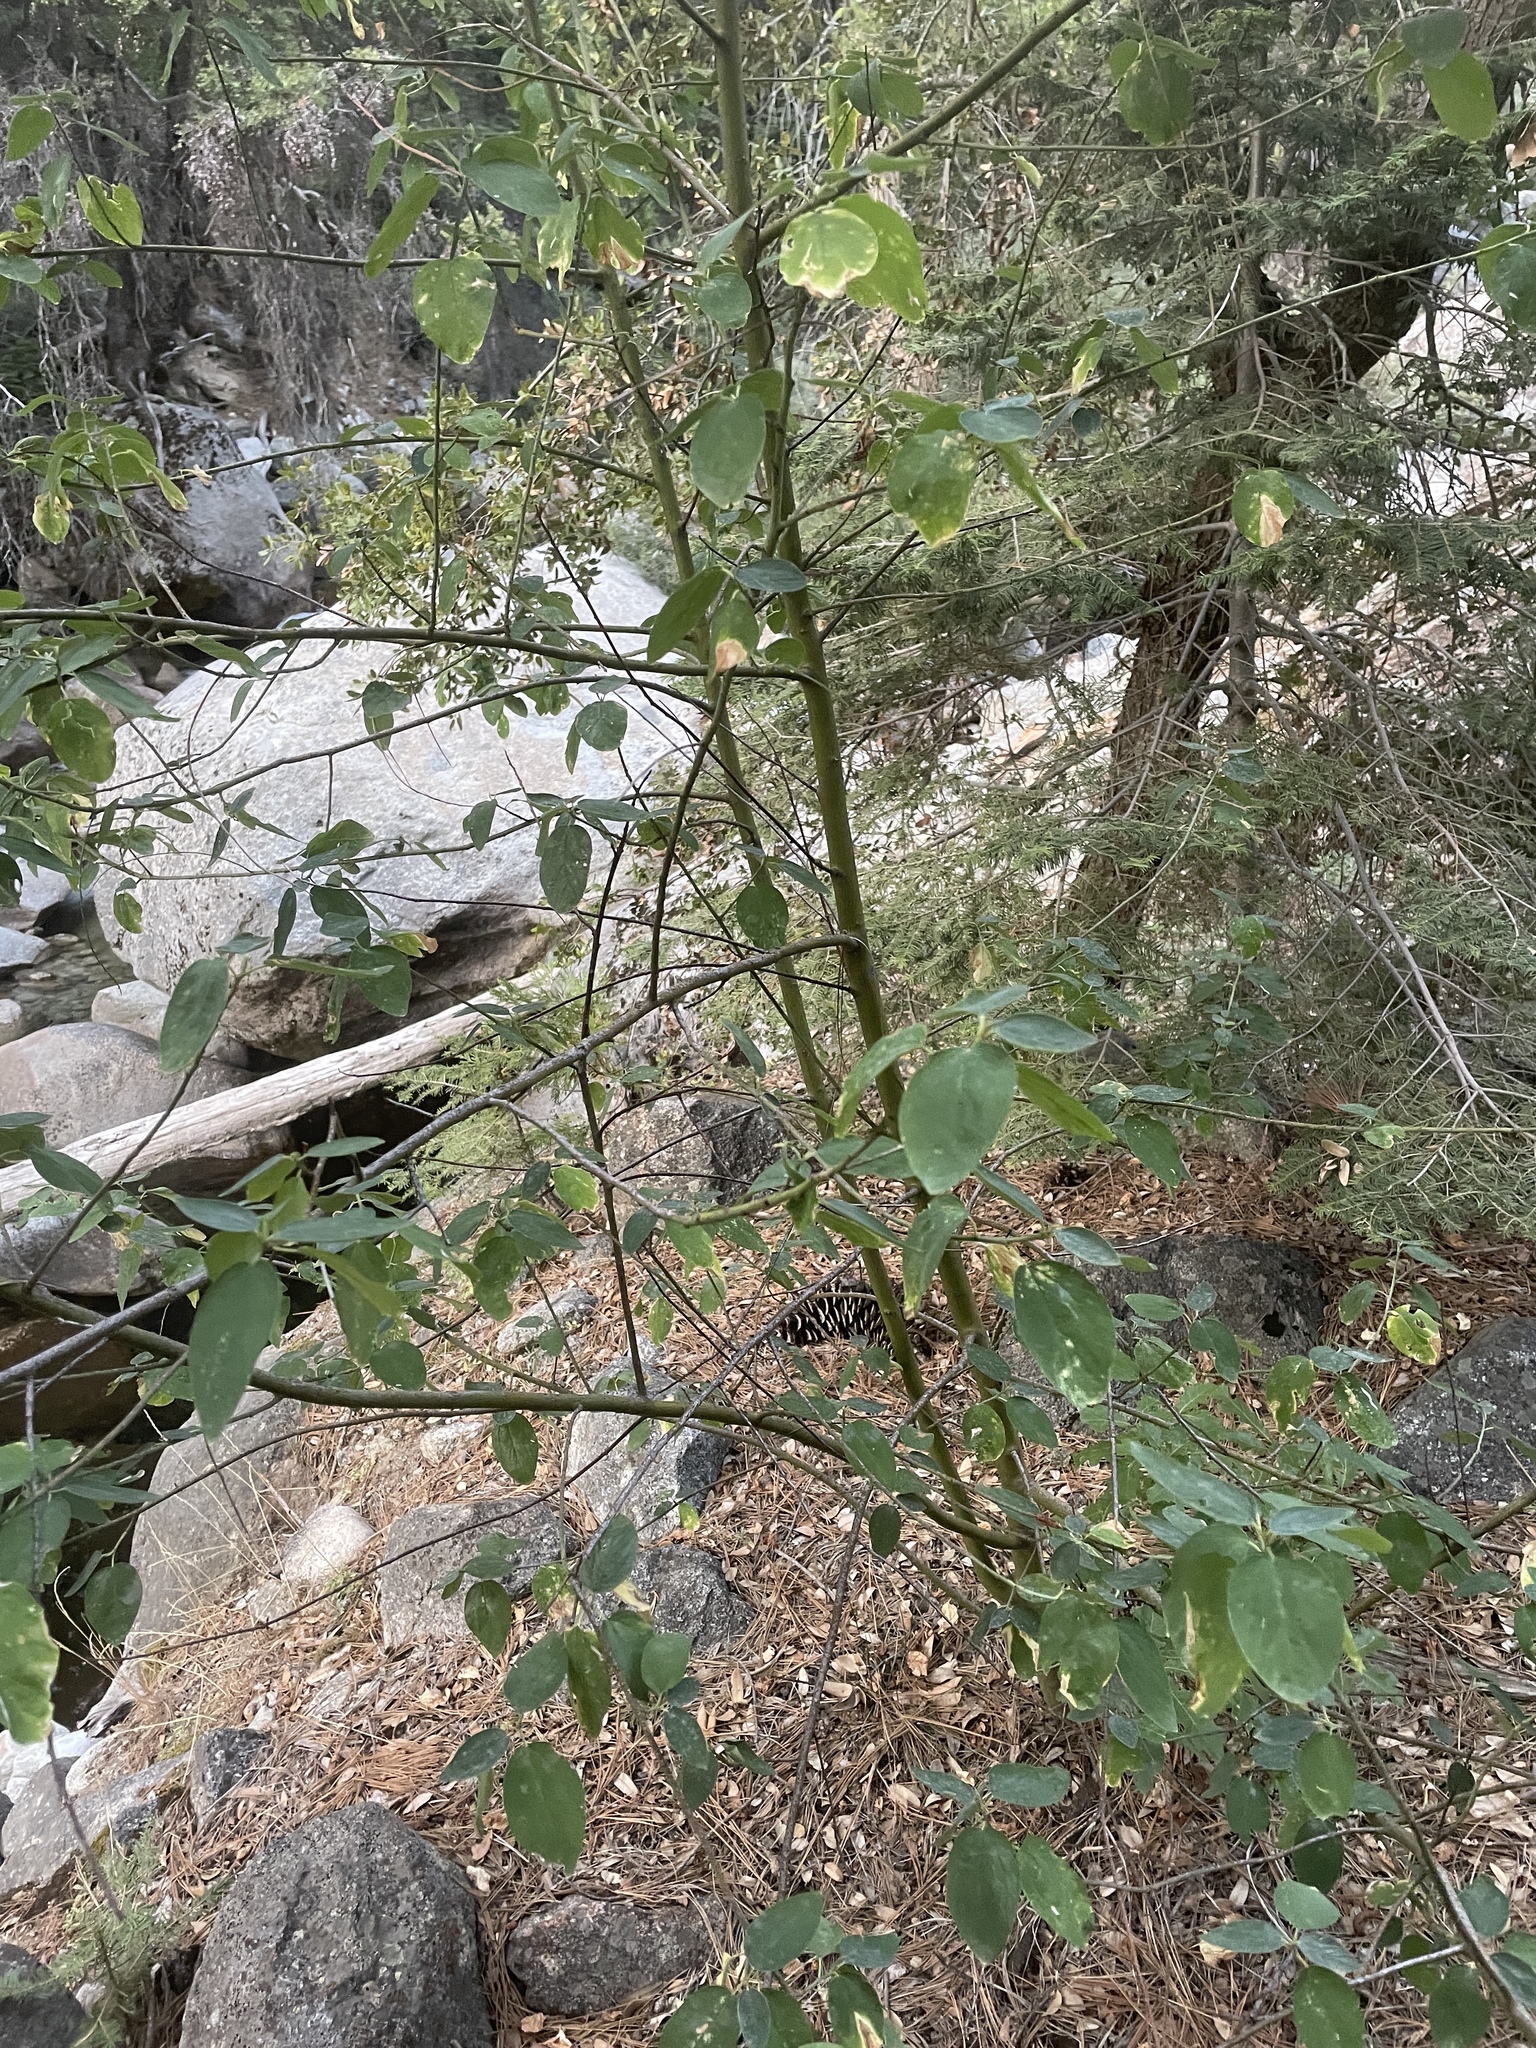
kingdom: Plantae
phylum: Tracheophyta
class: Magnoliopsida
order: Rosales
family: Rhamnaceae
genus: Ceanothus
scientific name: Ceanothus integerrimus
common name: Deerbrush ceanothus
